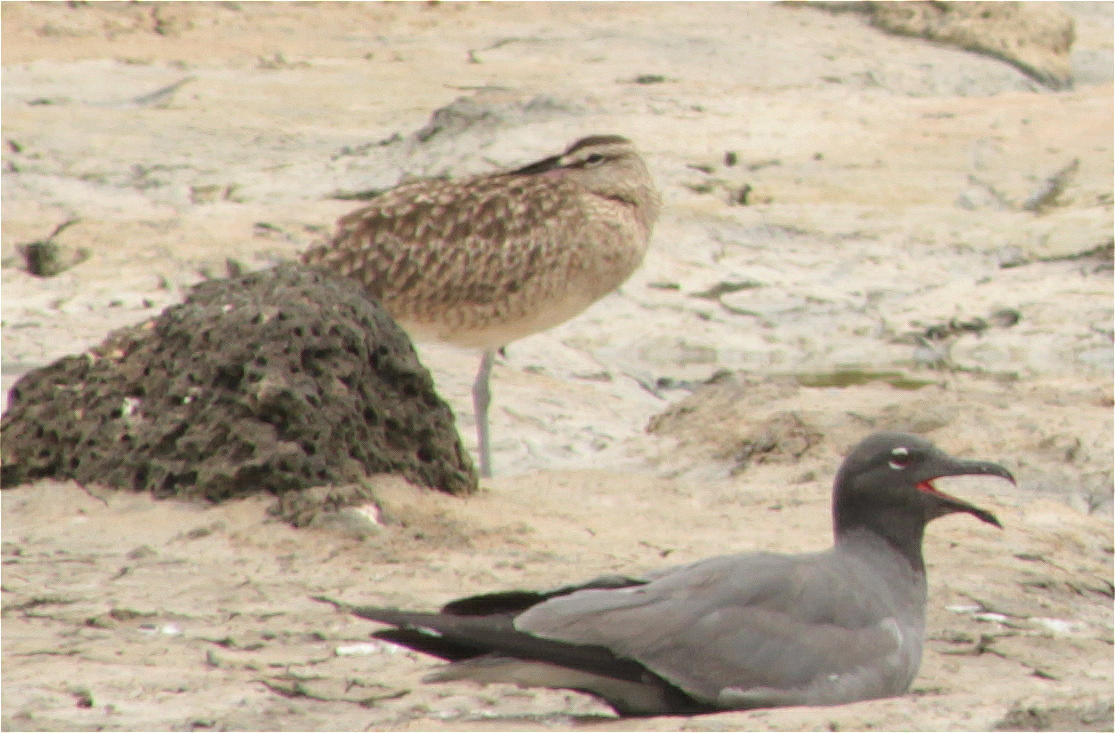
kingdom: Animalia
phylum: Chordata
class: Aves
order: Charadriiformes
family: Scolopacidae
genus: Numenius
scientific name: Numenius phaeopus
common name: Whimbrel
